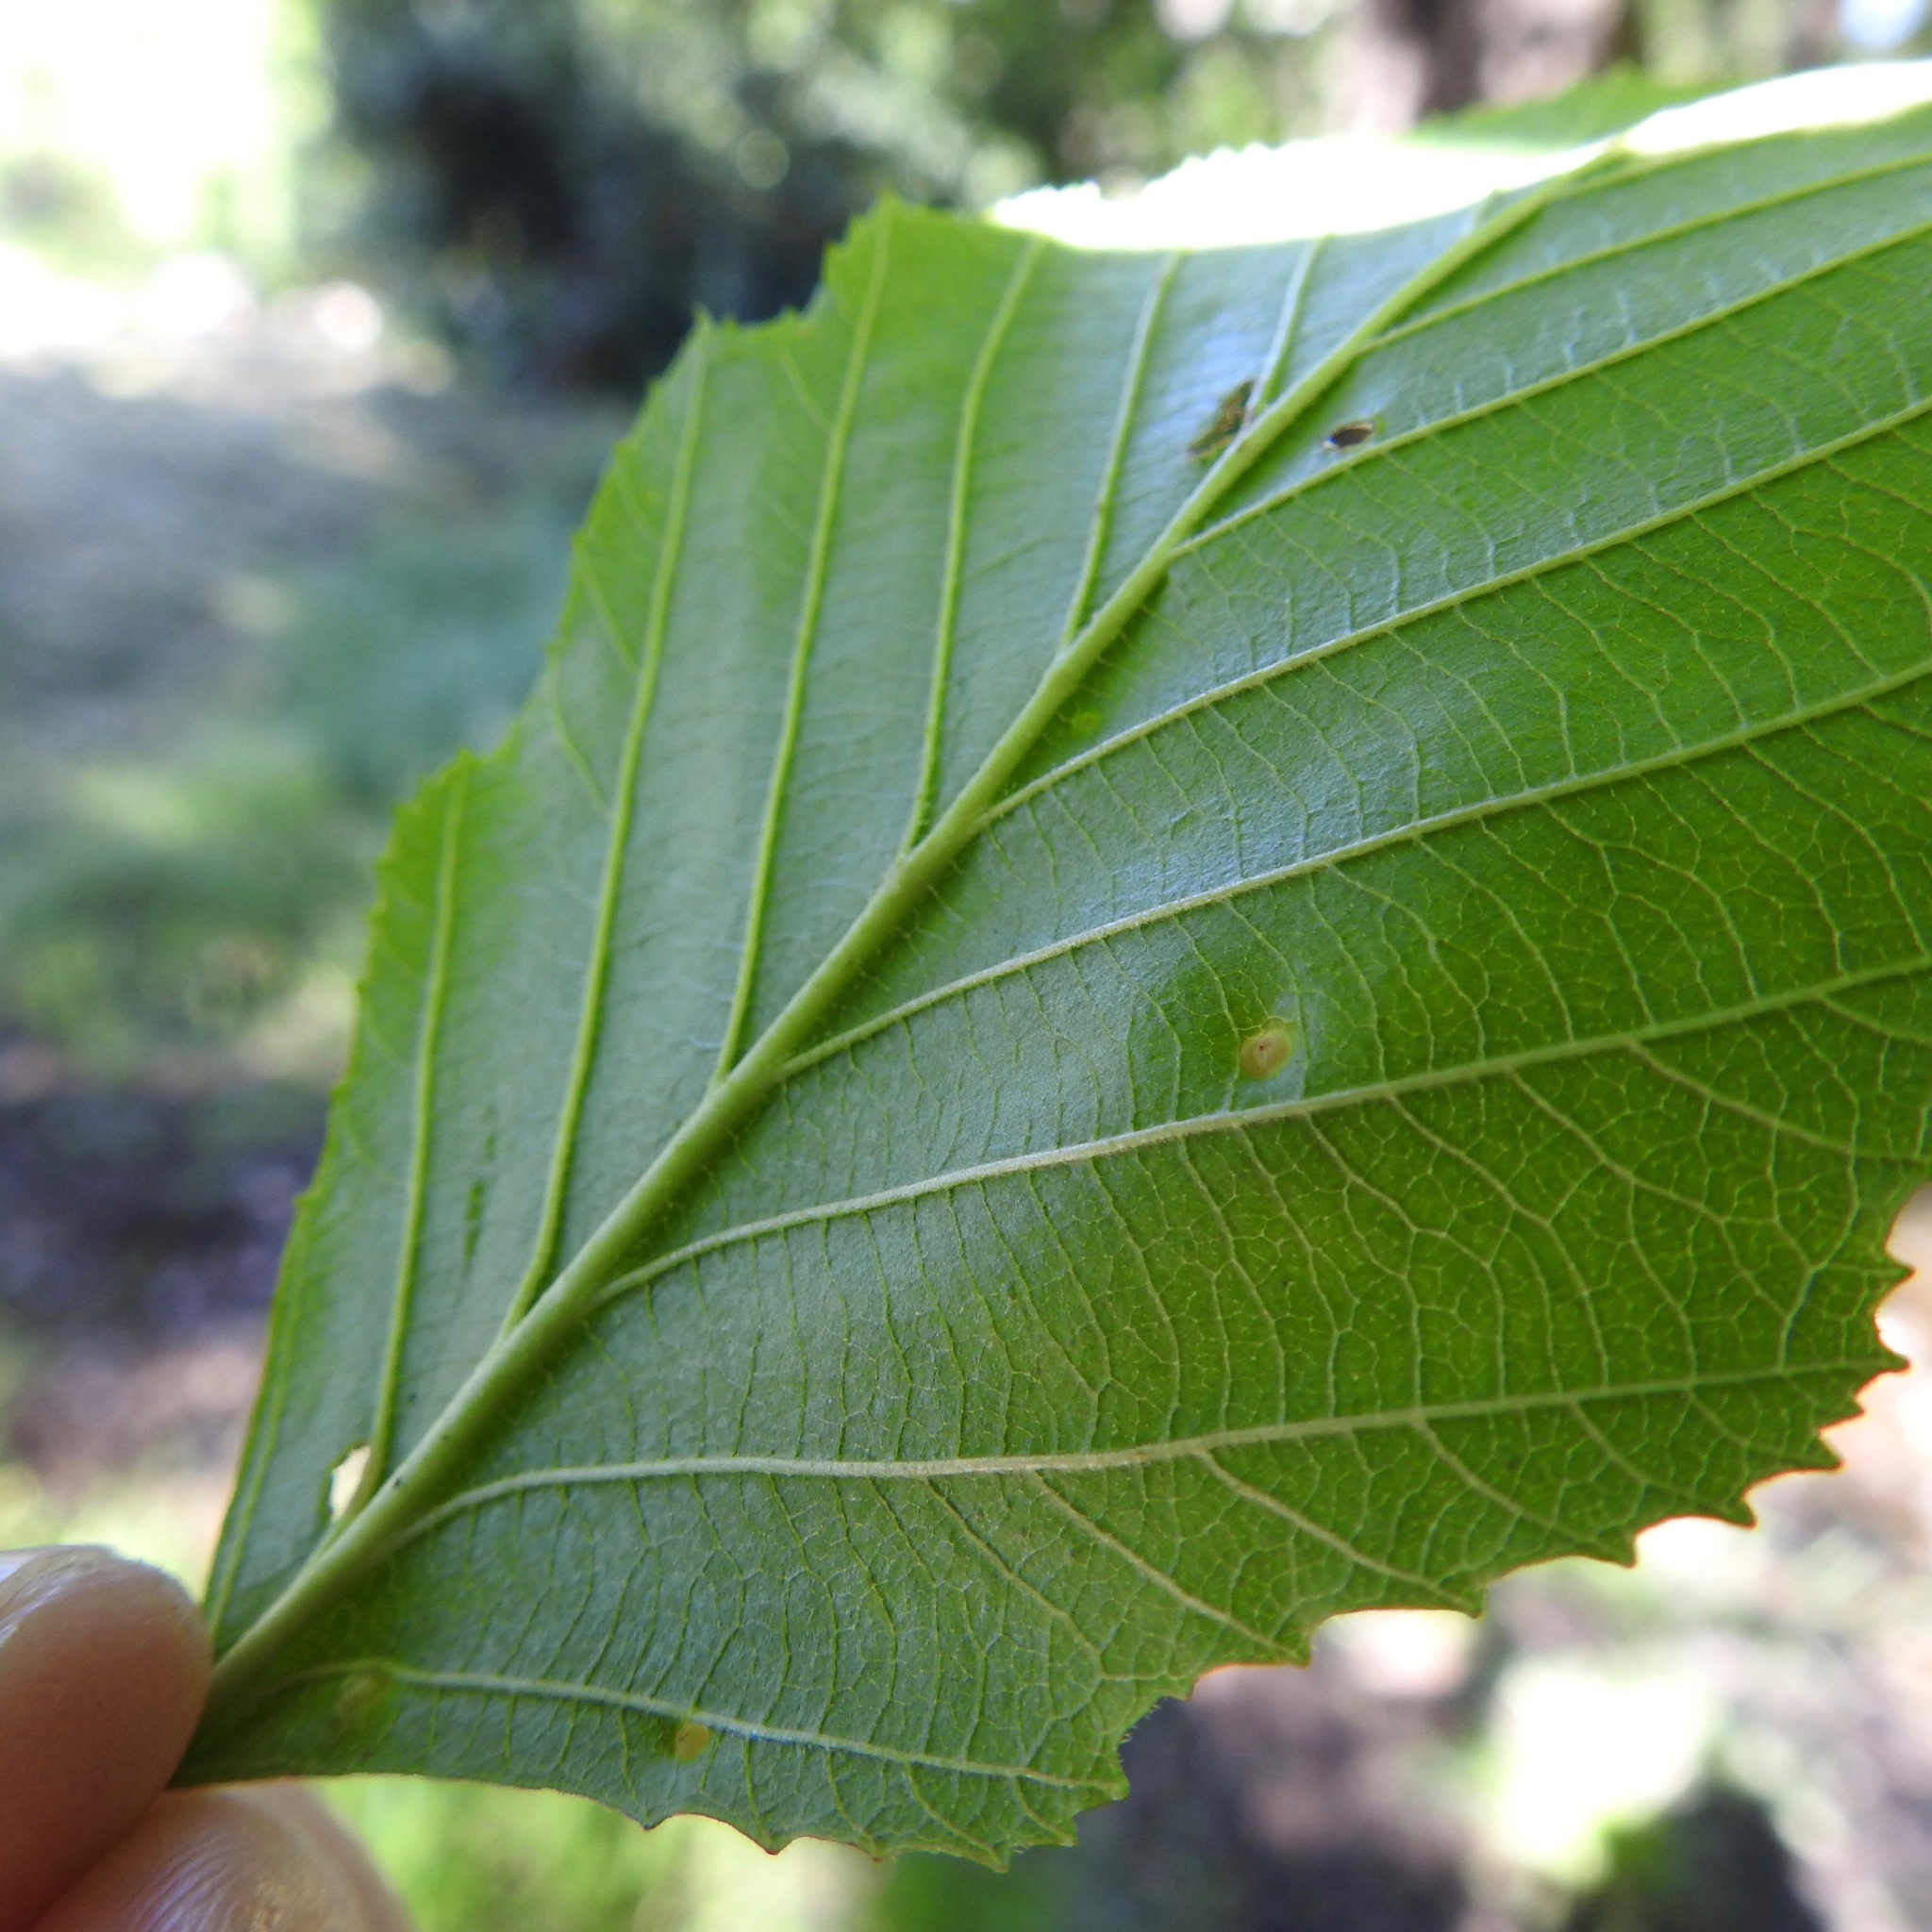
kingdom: Animalia
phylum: Arthropoda
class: Arachnida
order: Trombidiformes
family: Eriophyidae
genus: Eriophyes
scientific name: Eriophyes laevis
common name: Alder leaf gall mite
